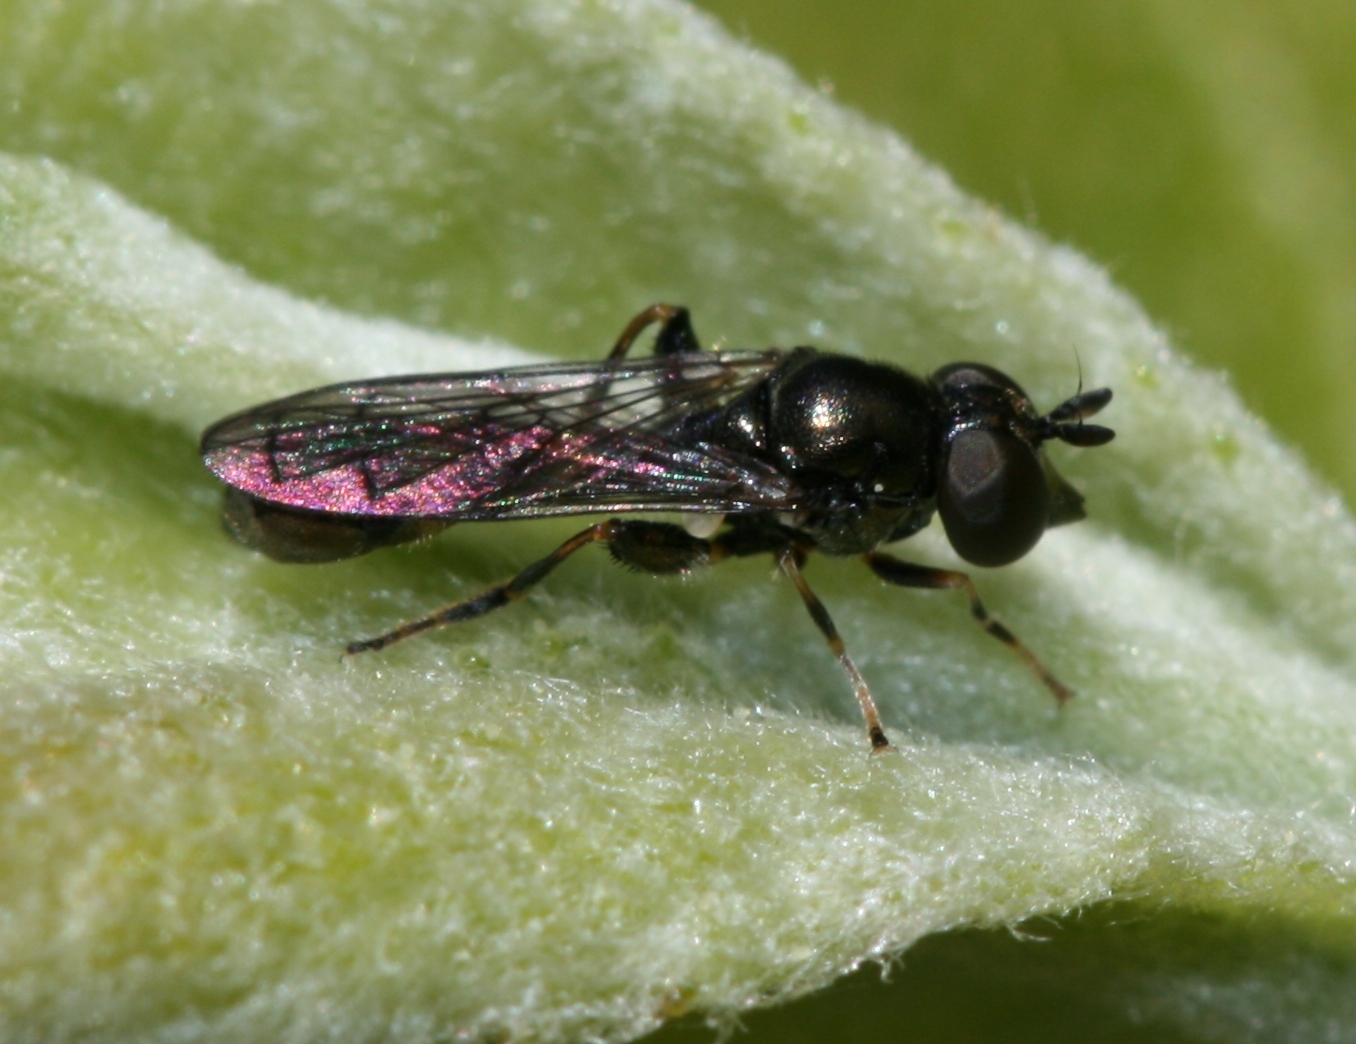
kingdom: Animalia
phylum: Arthropoda
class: Insecta
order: Diptera
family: Syrphidae
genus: Neoascia
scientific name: Neoascia
